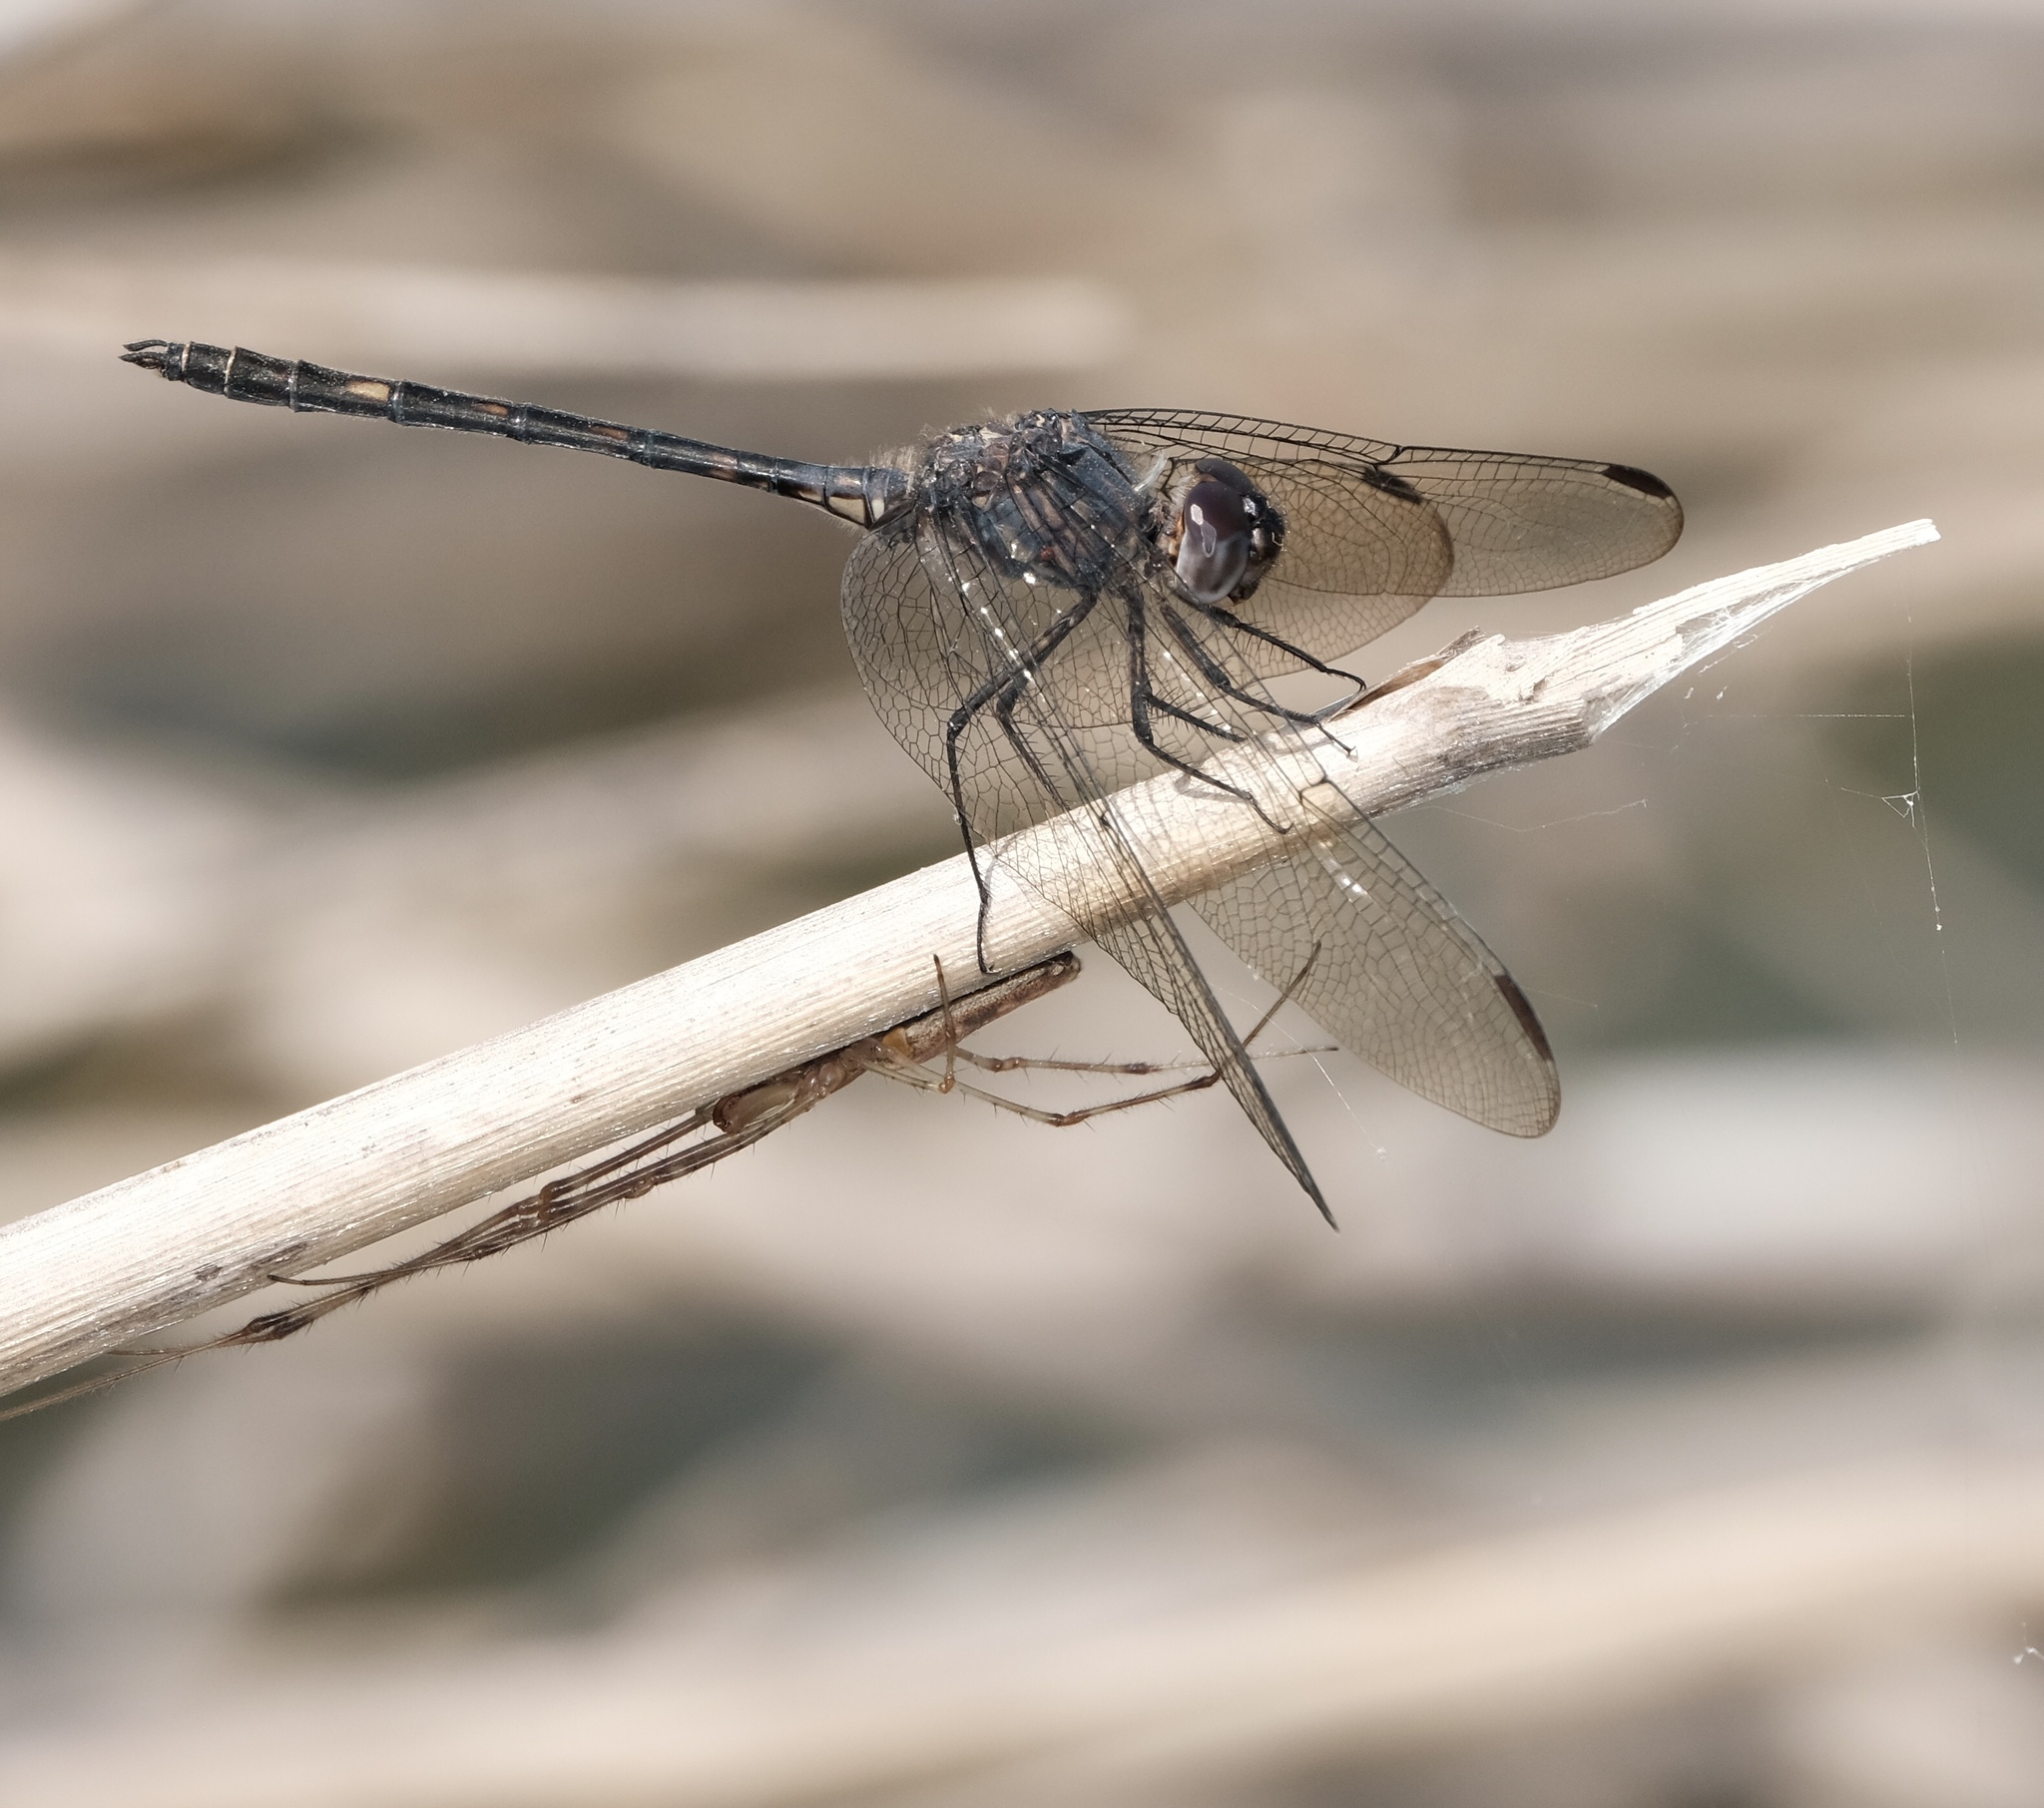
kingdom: Animalia
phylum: Arthropoda
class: Insecta
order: Odonata
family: Libellulidae
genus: Dythemis
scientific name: Dythemis nigrescens
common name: Black setwing
